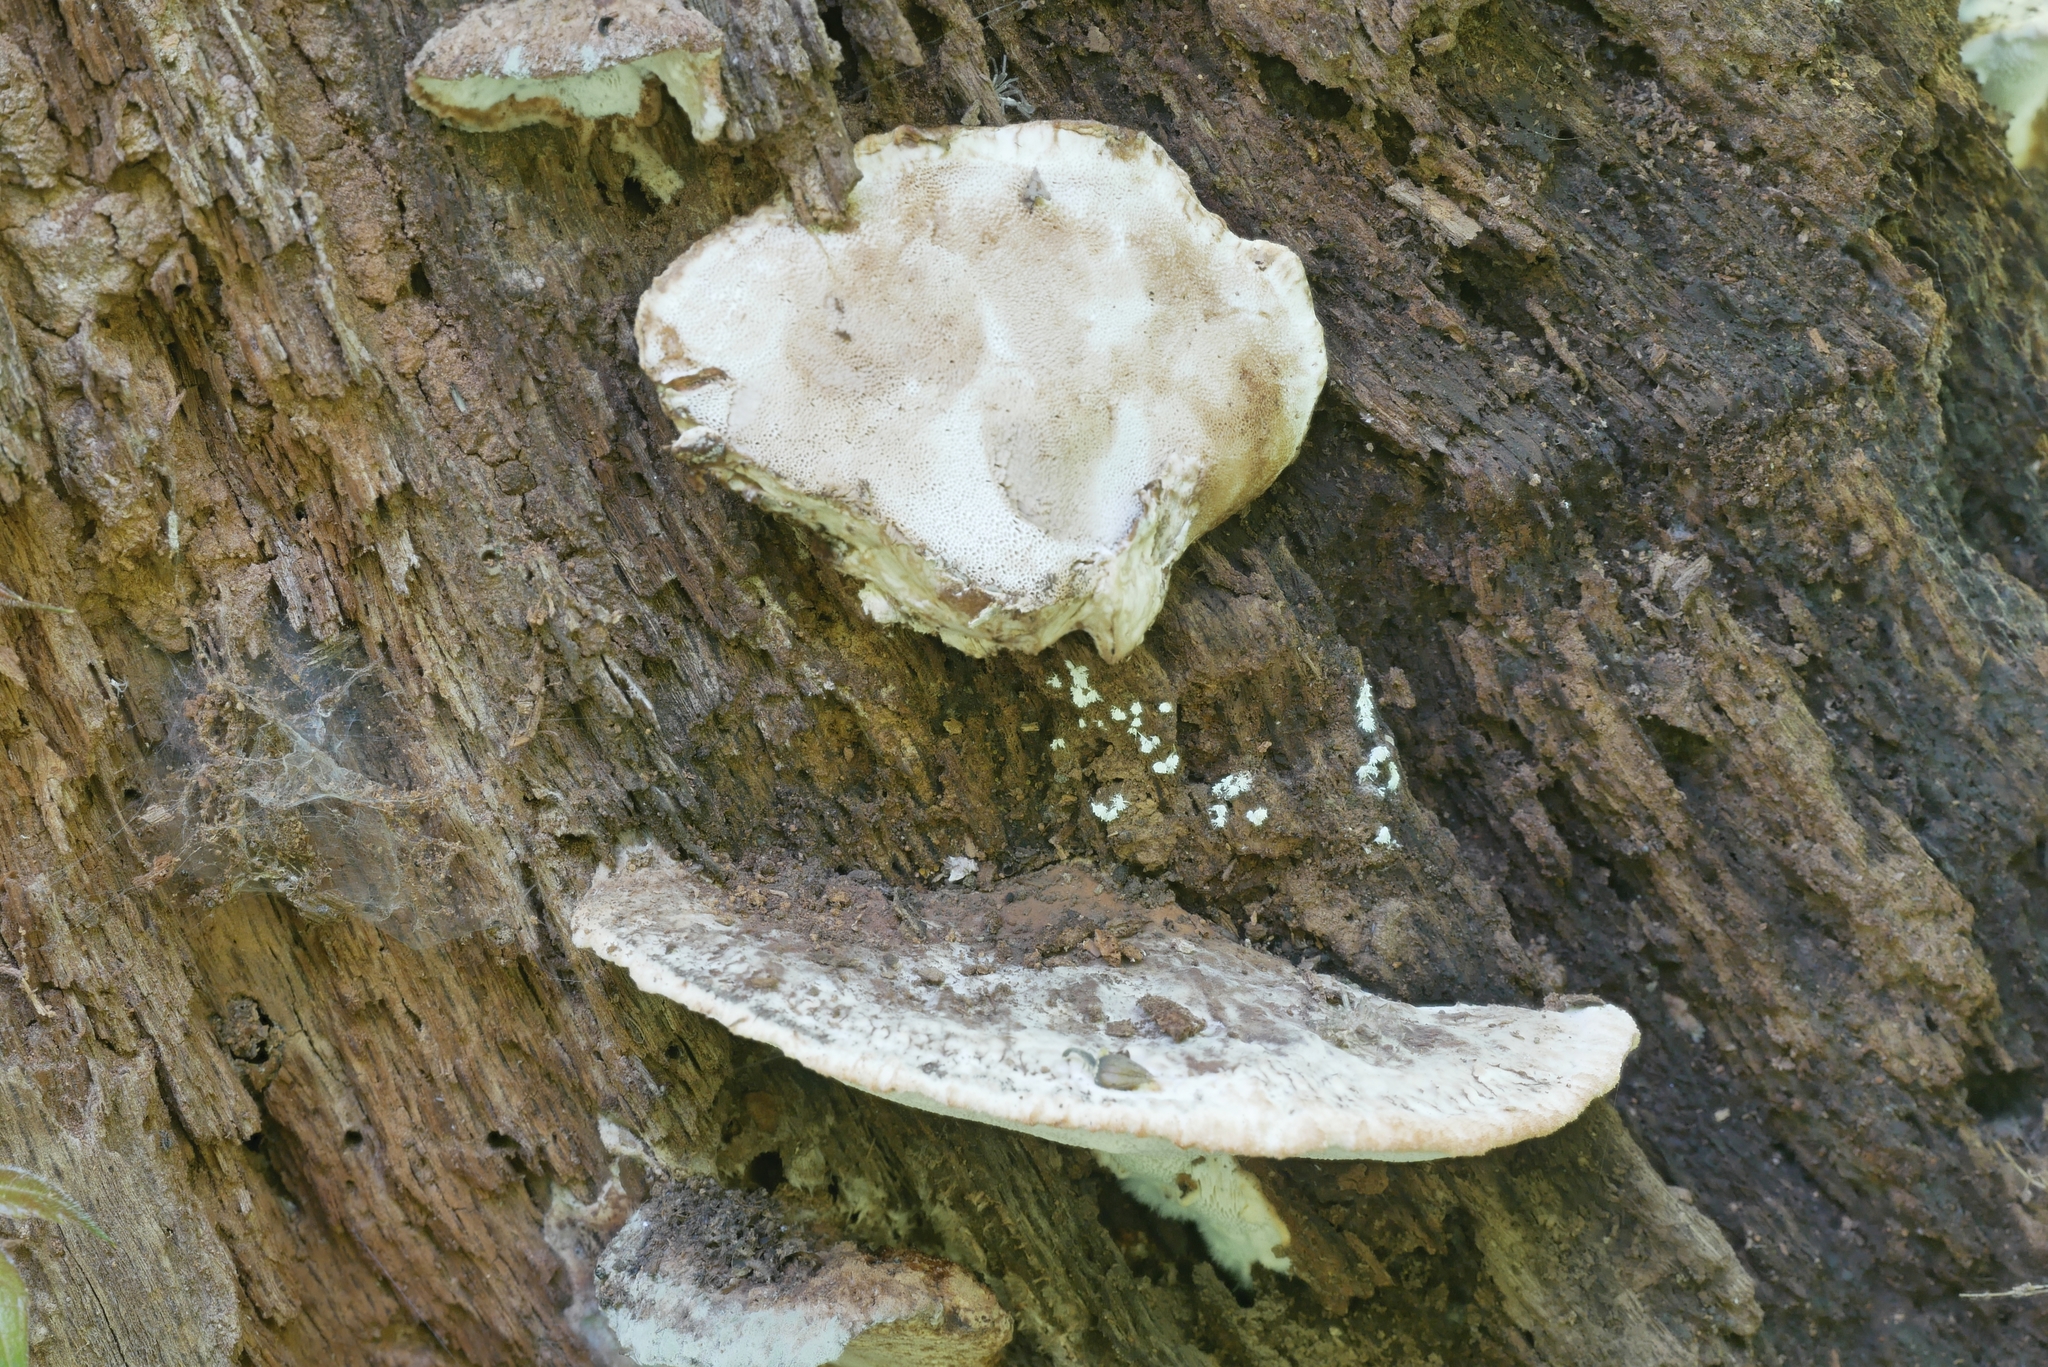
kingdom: Fungi
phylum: Basidiomycota
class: Agaricomycetes
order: Polyporales
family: Sarcoporiaceae
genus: Sarcoporia
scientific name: Sarcoporia longitubulata
